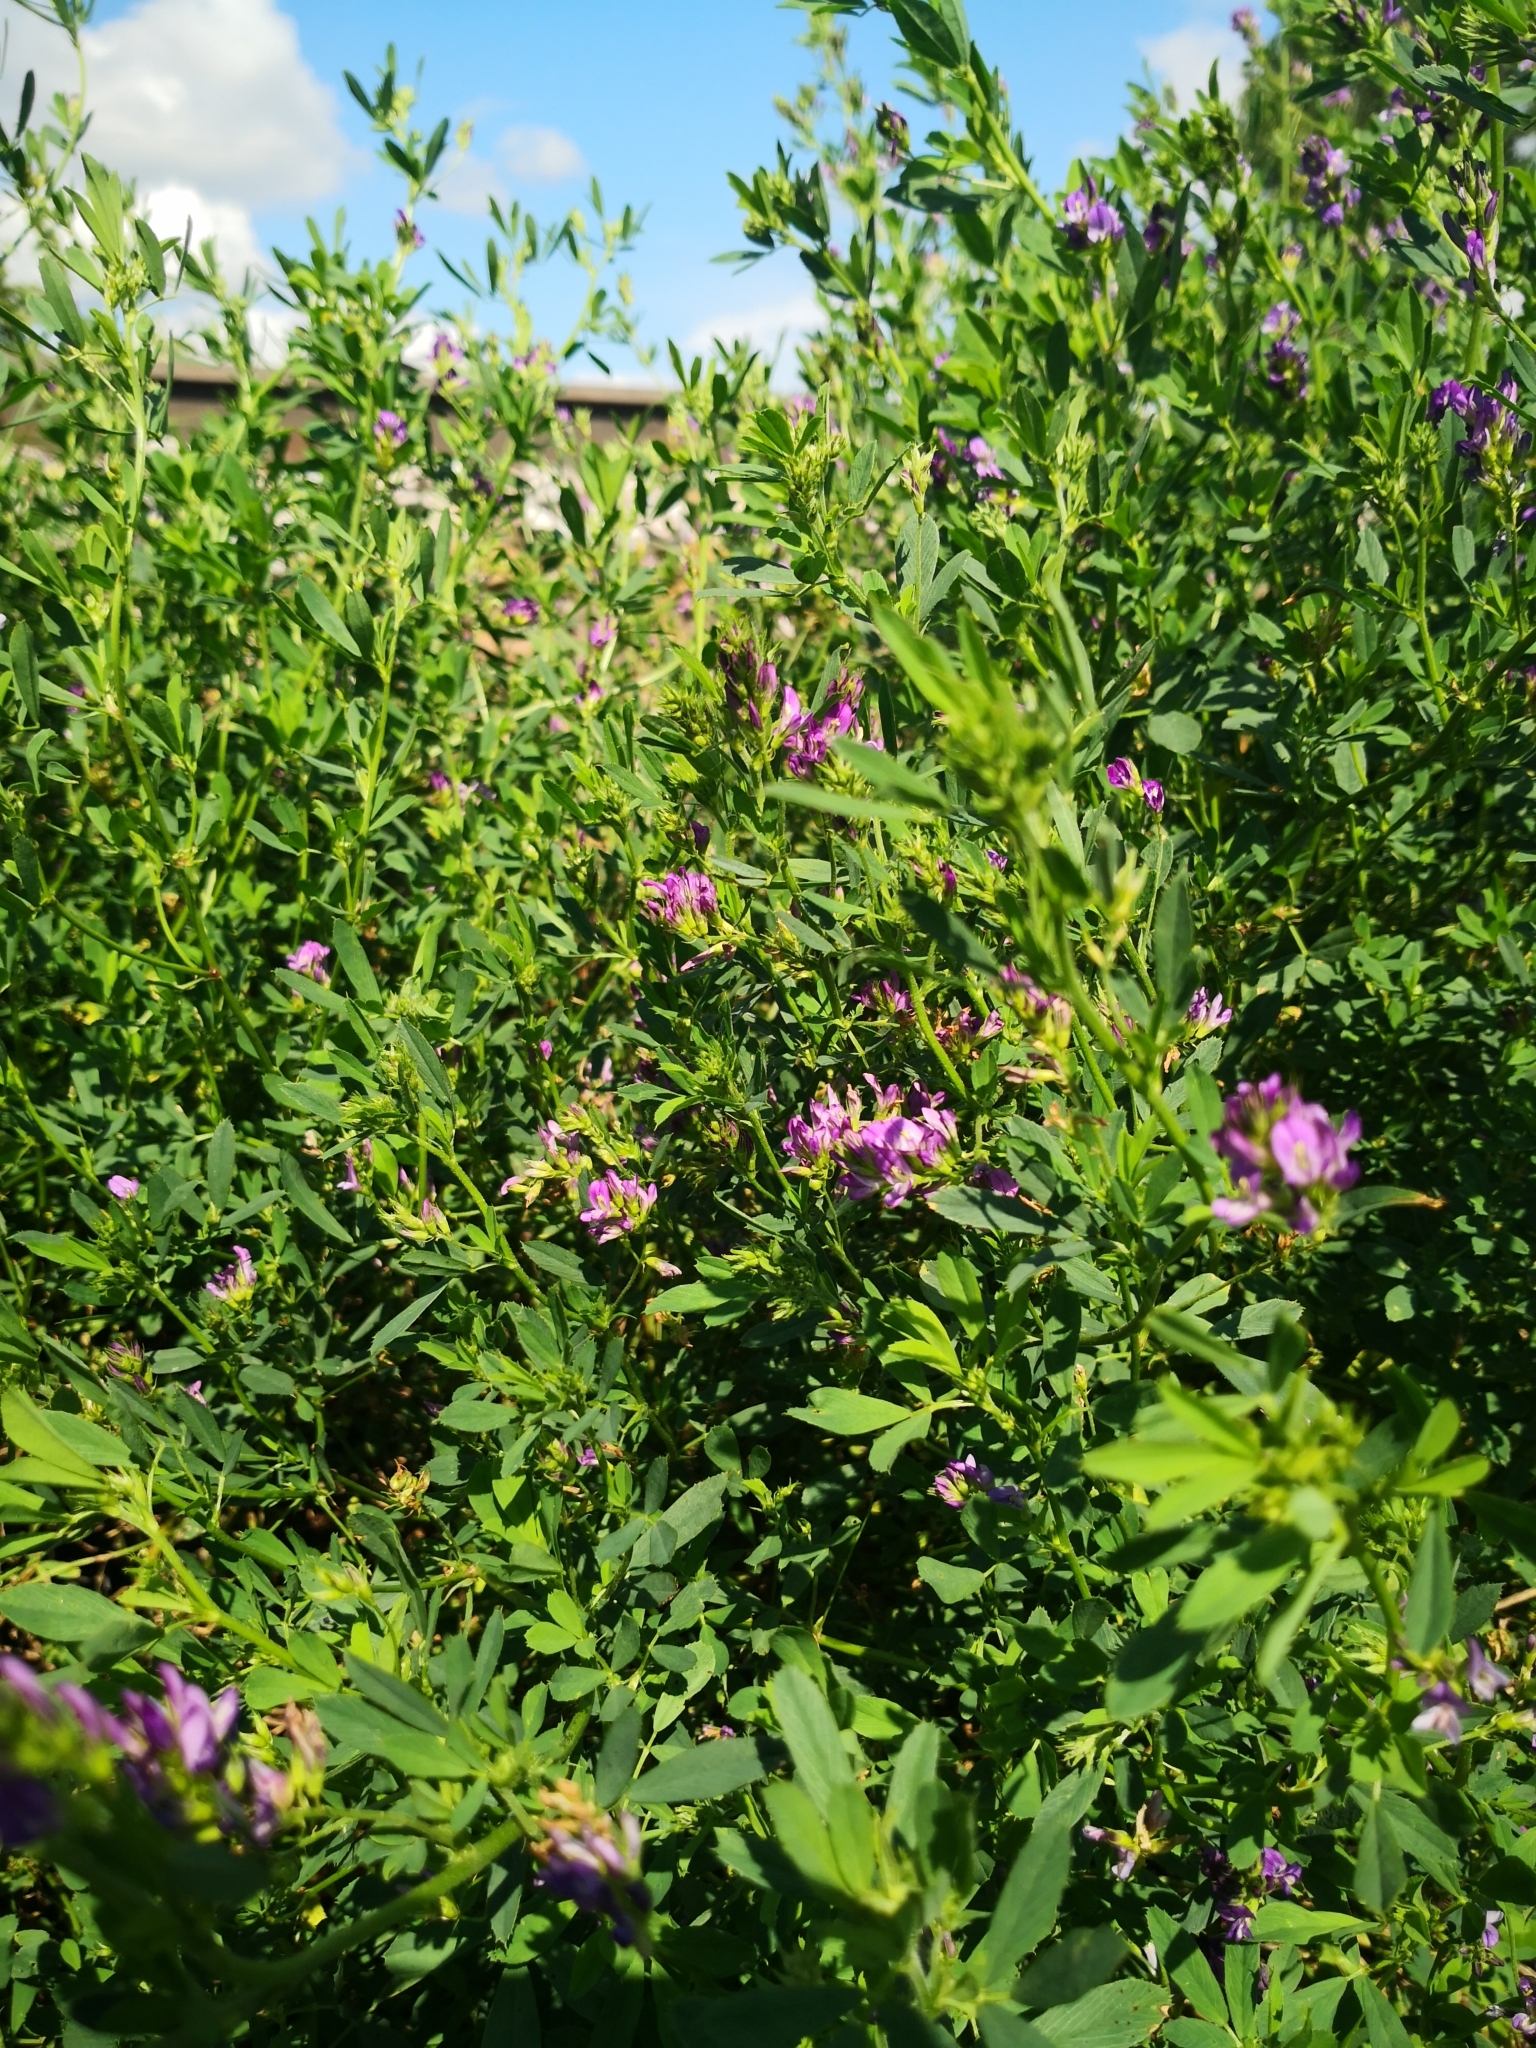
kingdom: Plantae
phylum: Tracheophyta
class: Magnoliopsida
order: Fabales
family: Fabaceae
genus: Medicago
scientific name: Medicago varia
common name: Sand lucerne
